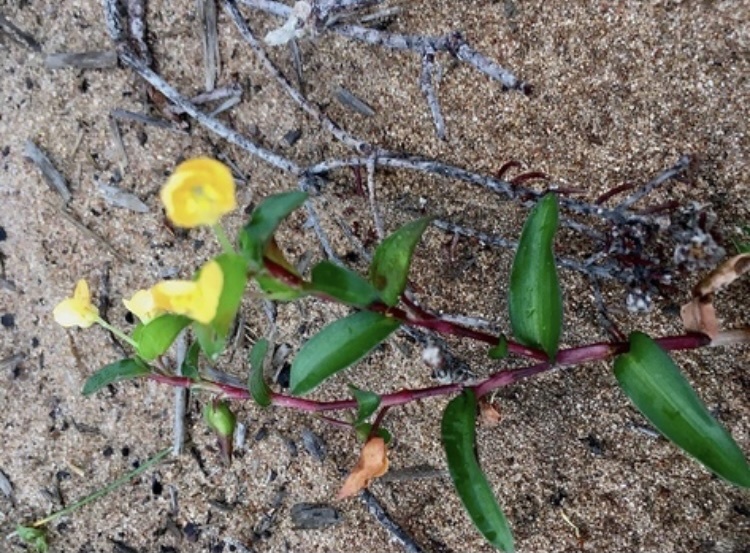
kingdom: Plantae
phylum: Tracheophyta
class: Liliopsida
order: Commelinales
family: Commelinaceae
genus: Commelina
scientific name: Commelina africana
